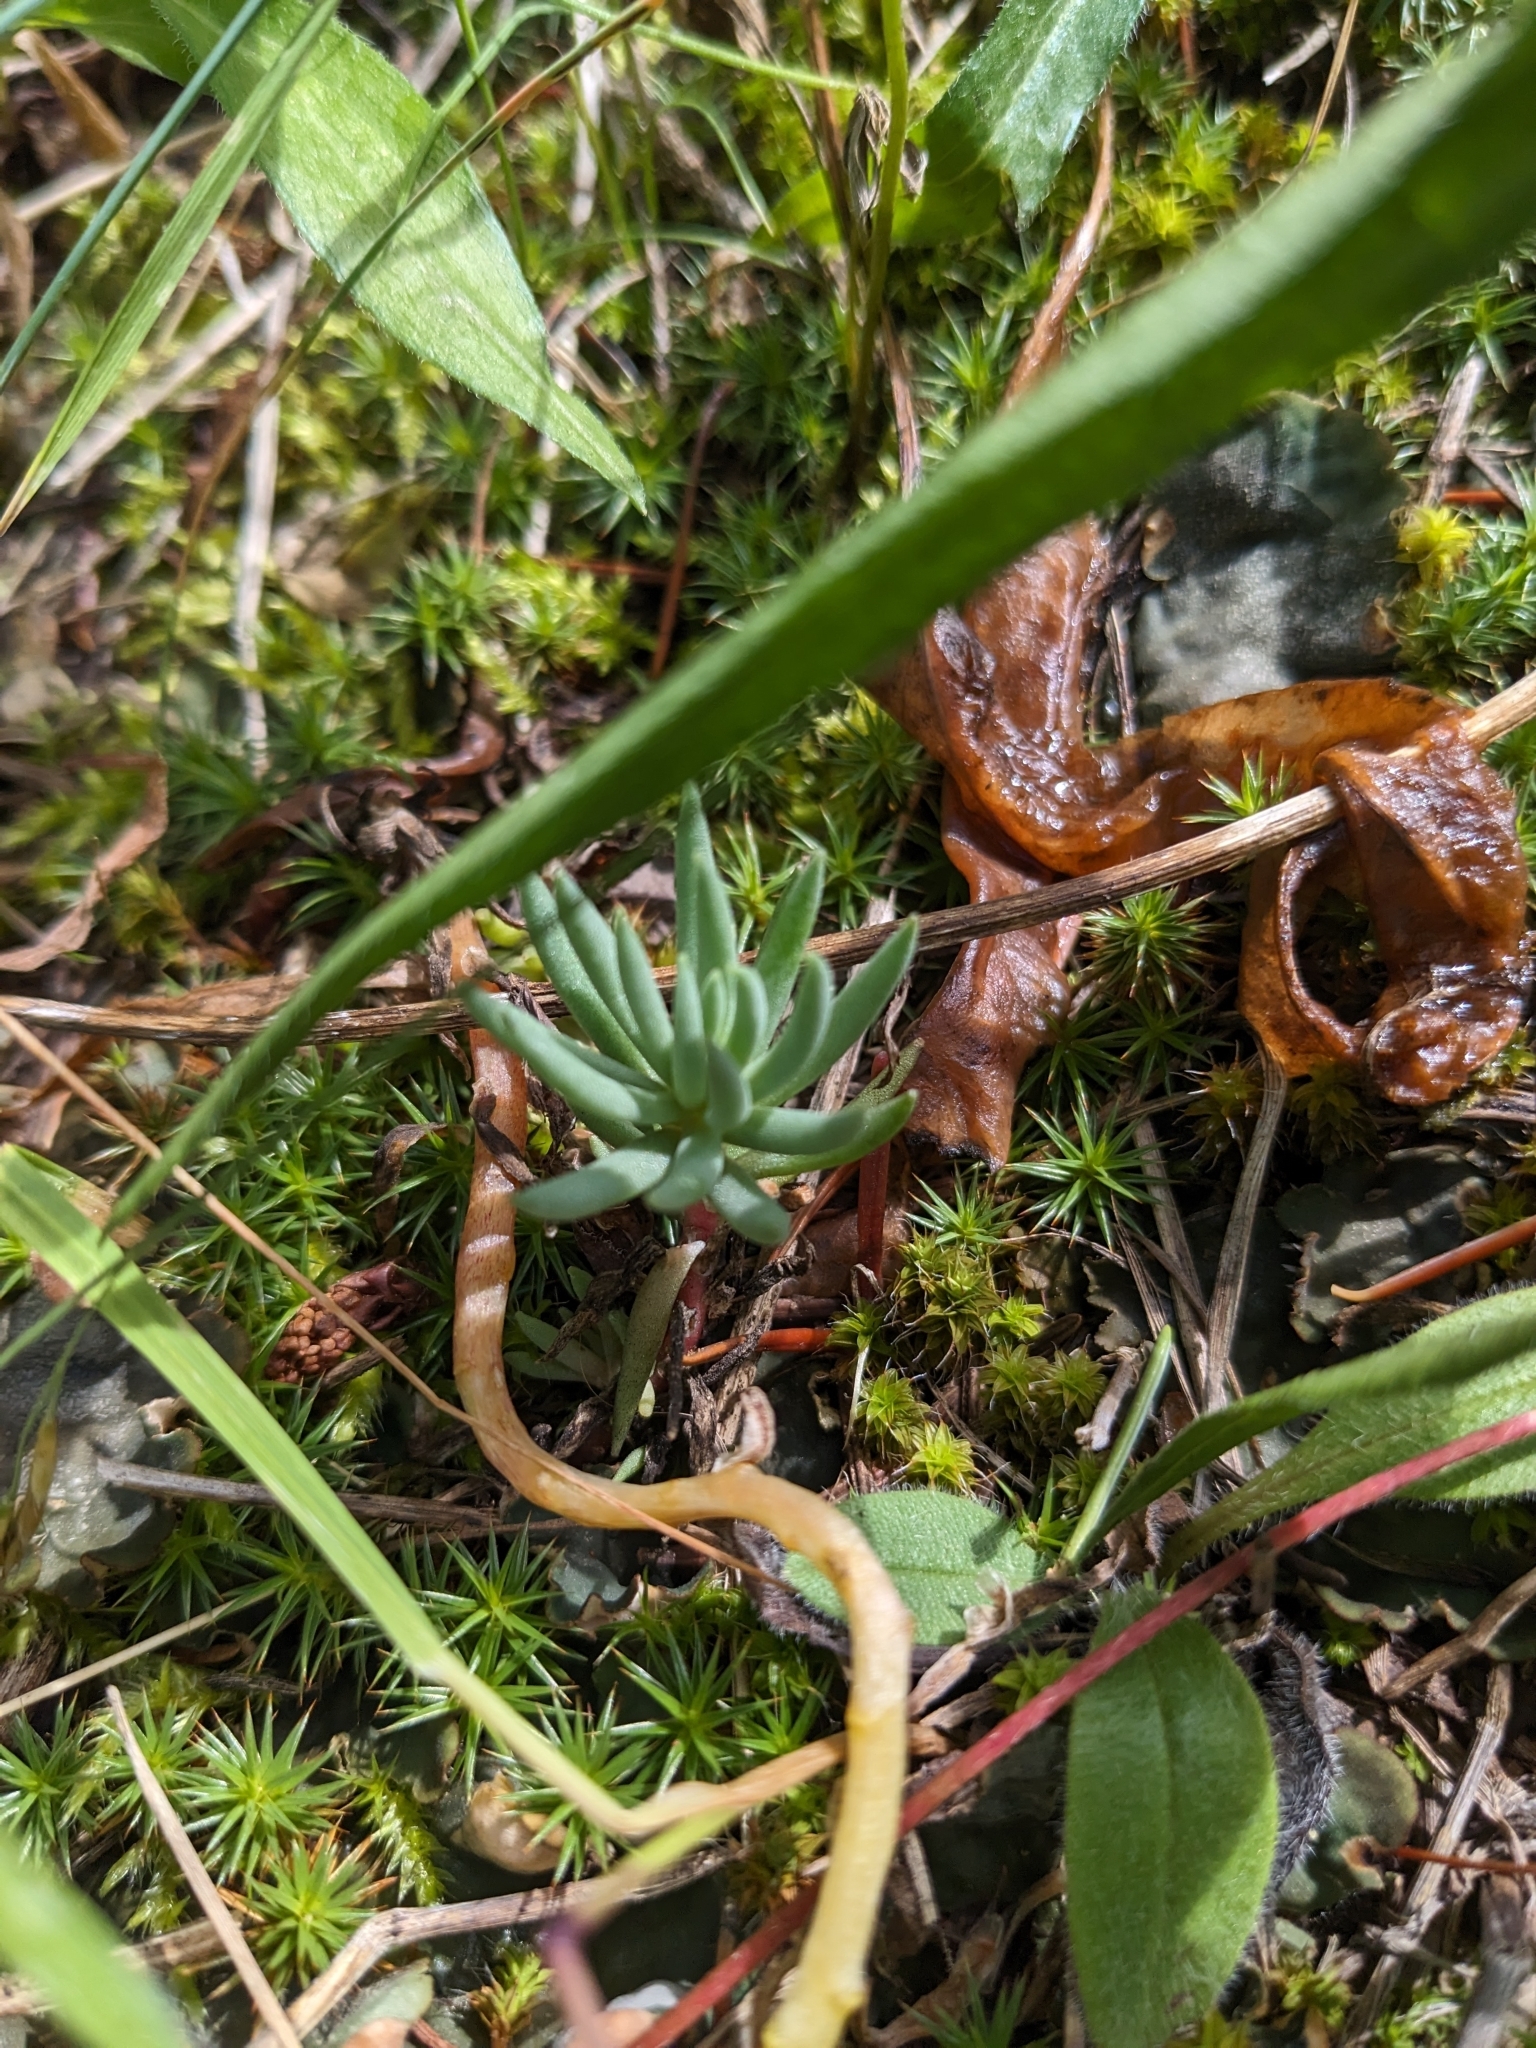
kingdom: Plantae
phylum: Tracheophyta
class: Magnoliopsida
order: Saxifragales
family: Crassulaceae
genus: Sedum
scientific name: Sedum lanceolatum
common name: Common stonecrop
